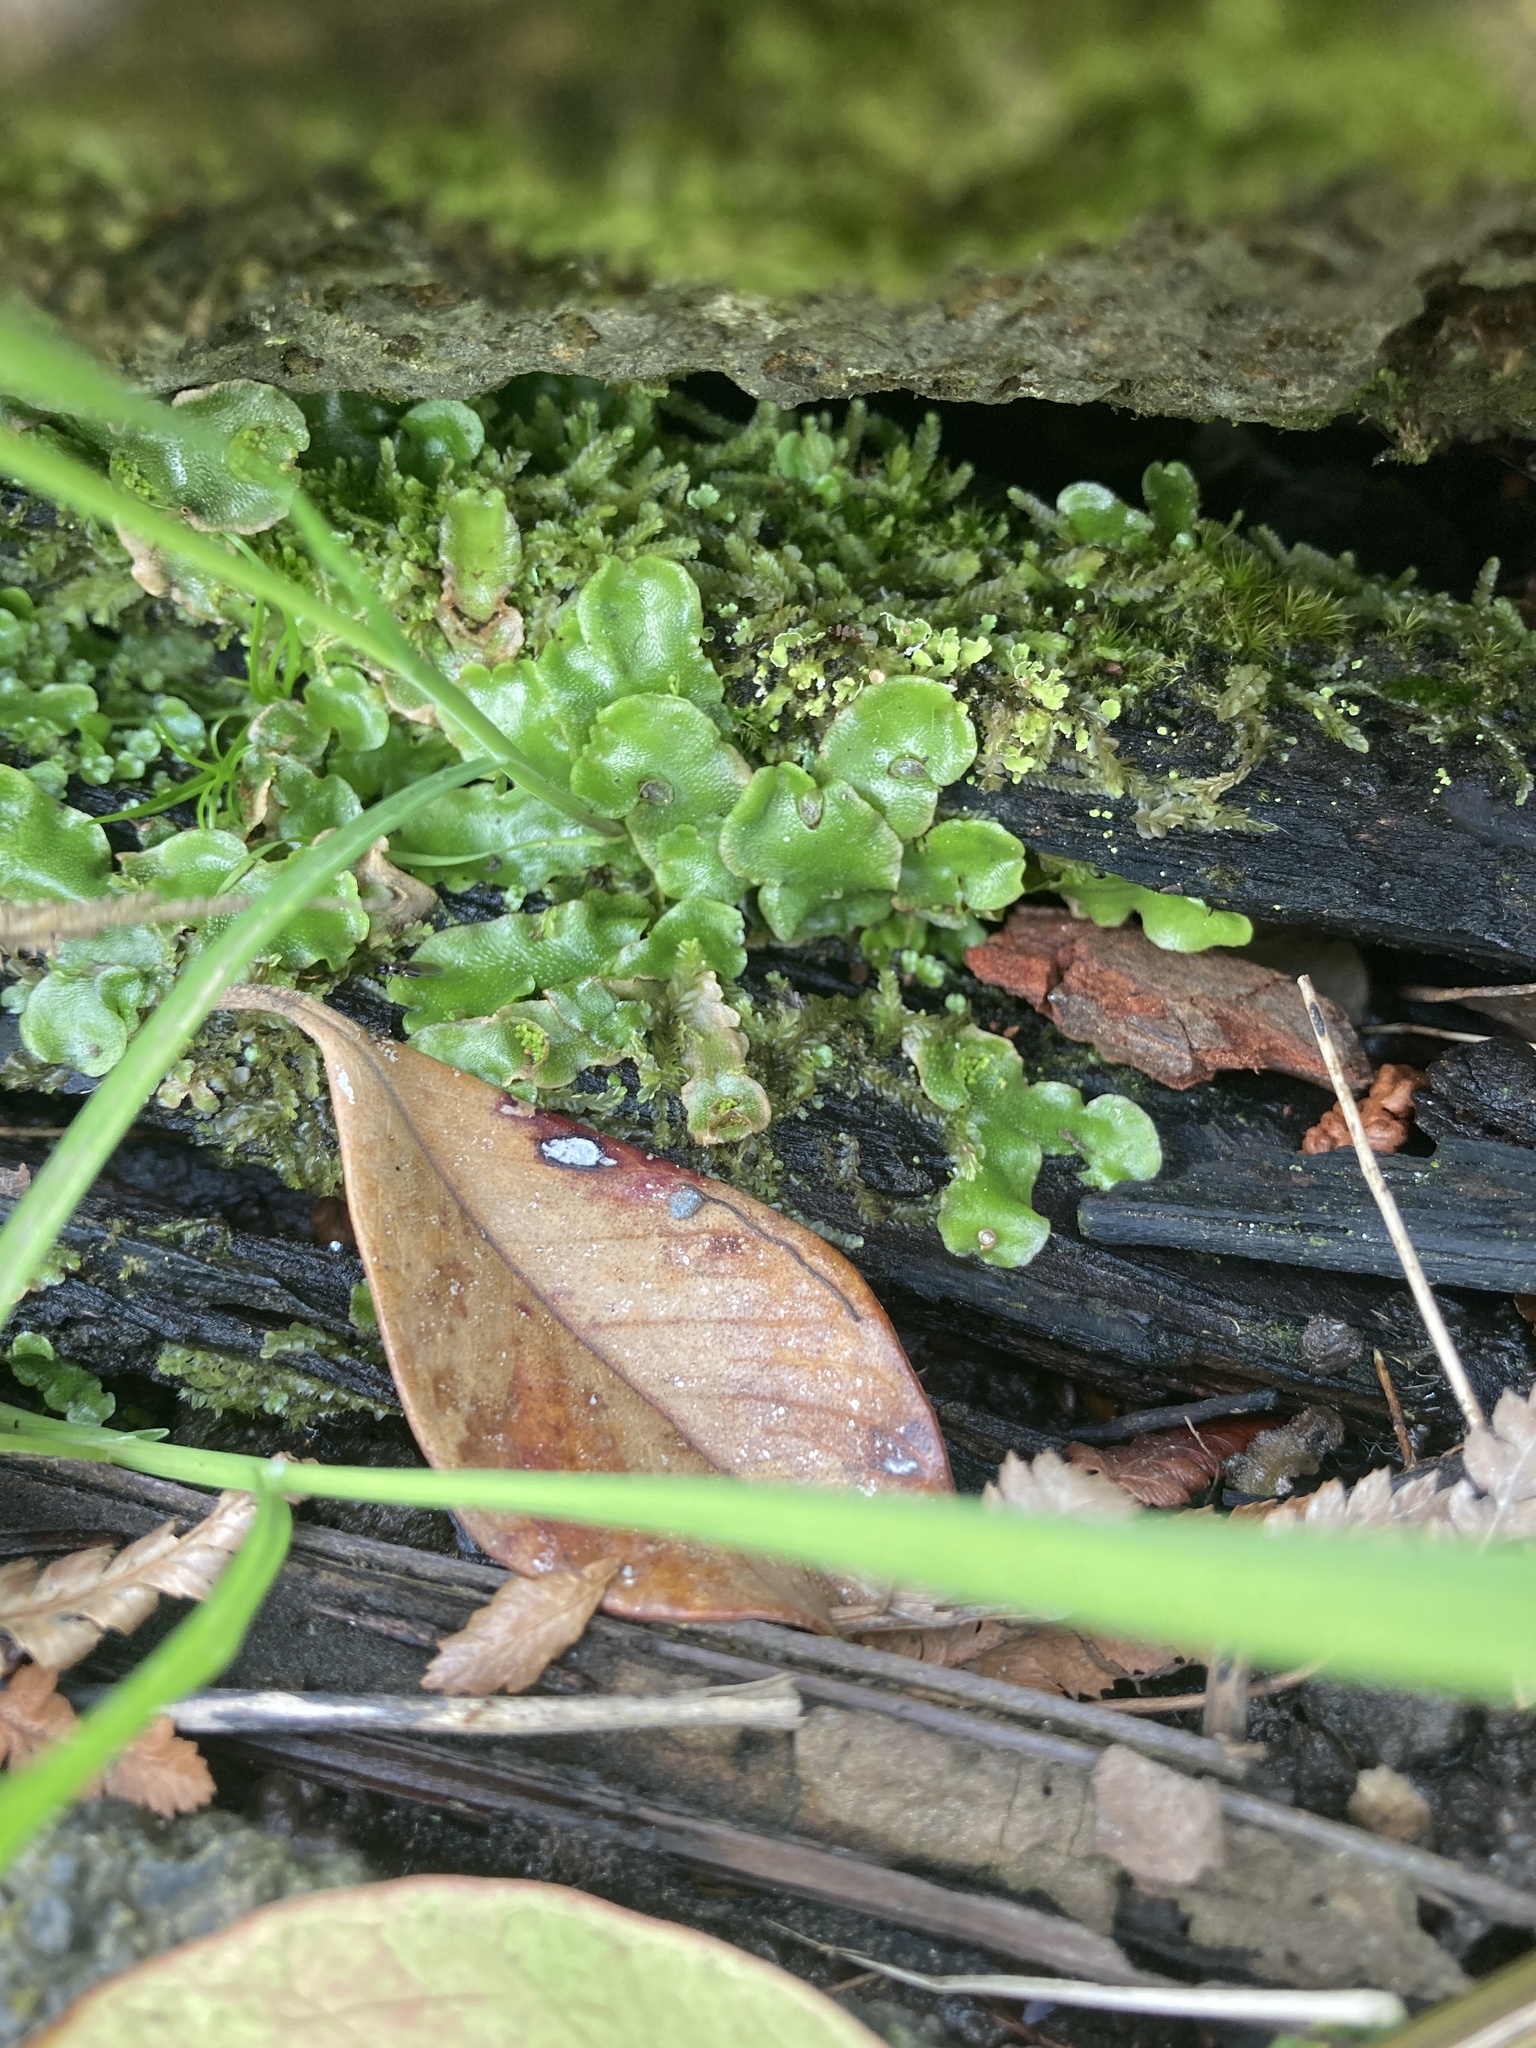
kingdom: Plantae
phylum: Marchantiophyta
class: Marchantiopsida
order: Lunulariales
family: Lunulariaceae
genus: Lunularia
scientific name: Lunularia cruciata
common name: Crescent-cup liverwort
